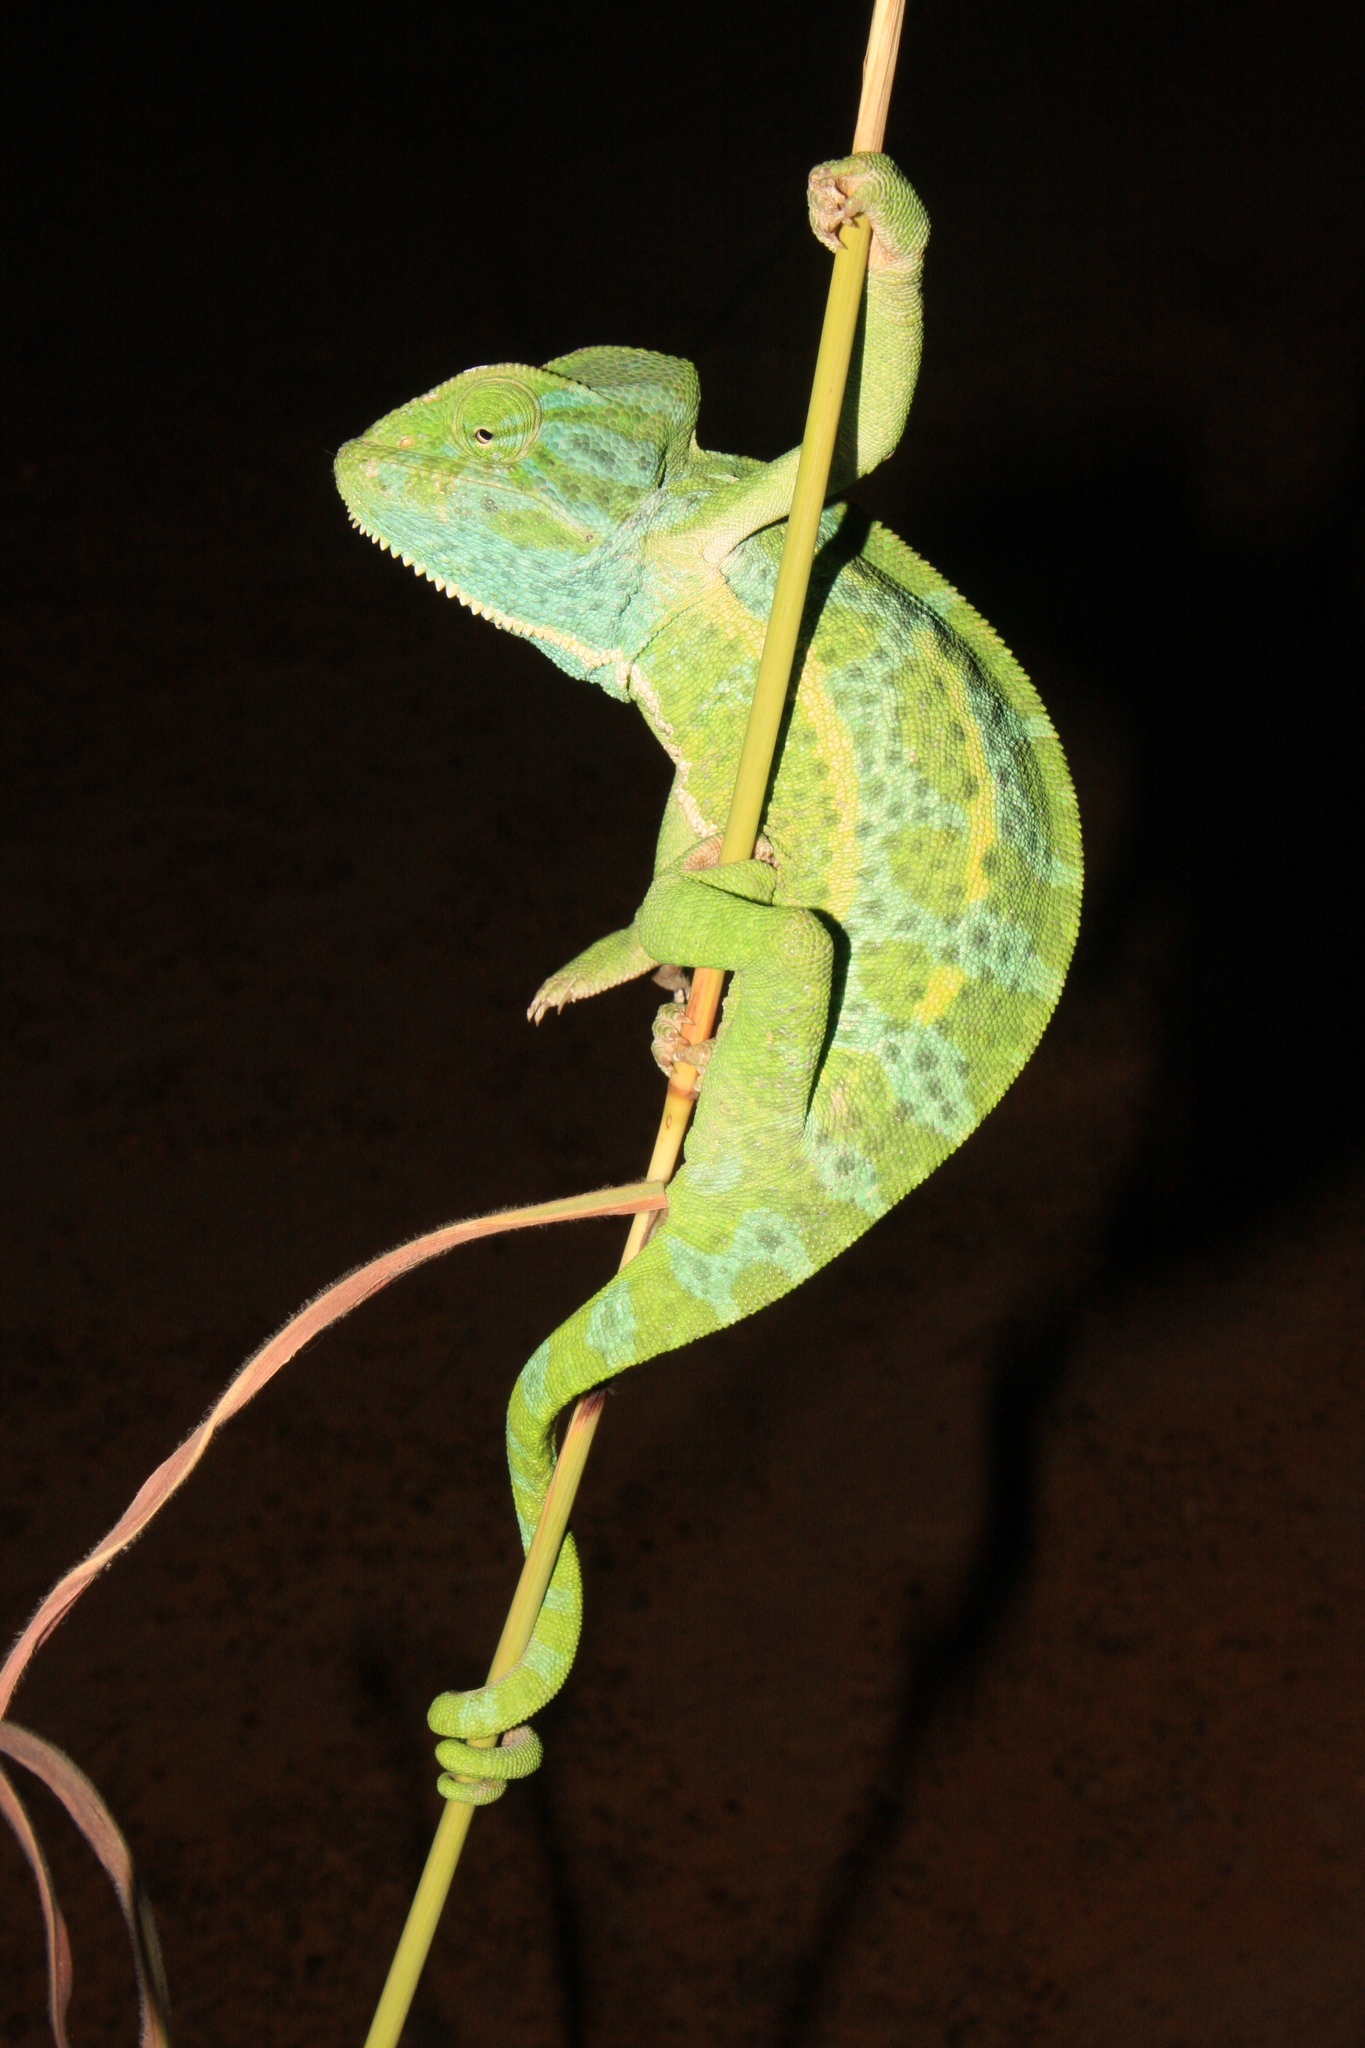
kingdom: Animalia
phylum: Chordata
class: Squamata
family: Chamaeleonidae
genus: Chamaeleo
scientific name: Chamaeleo africanus
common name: African chameleon
